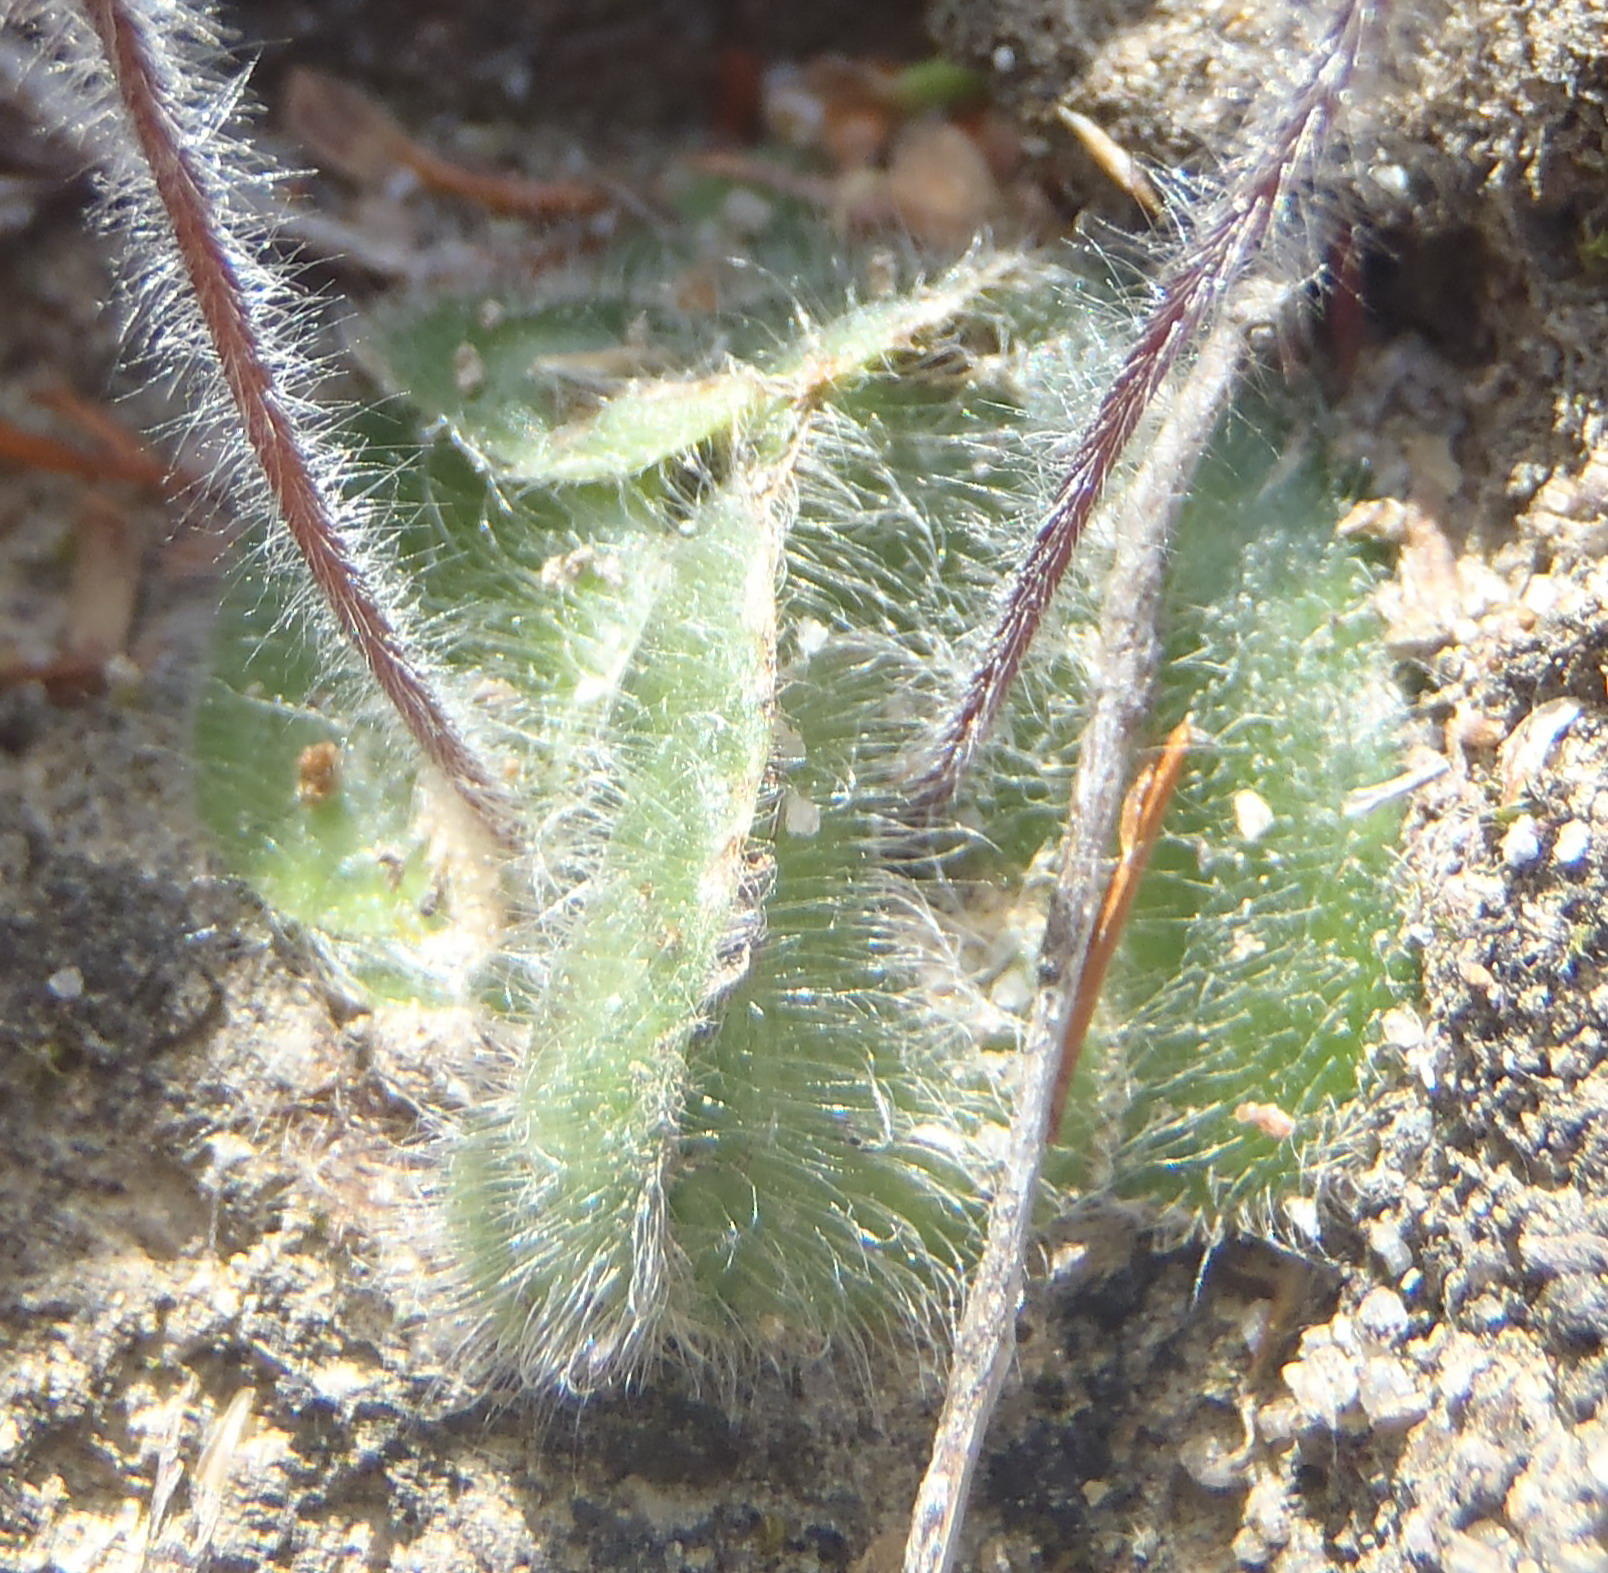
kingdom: Plantae
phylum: Tracheophyta
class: Liliopsida
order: Asparagales
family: Orchidaceae
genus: Holothrix
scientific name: Holothrix villosa
